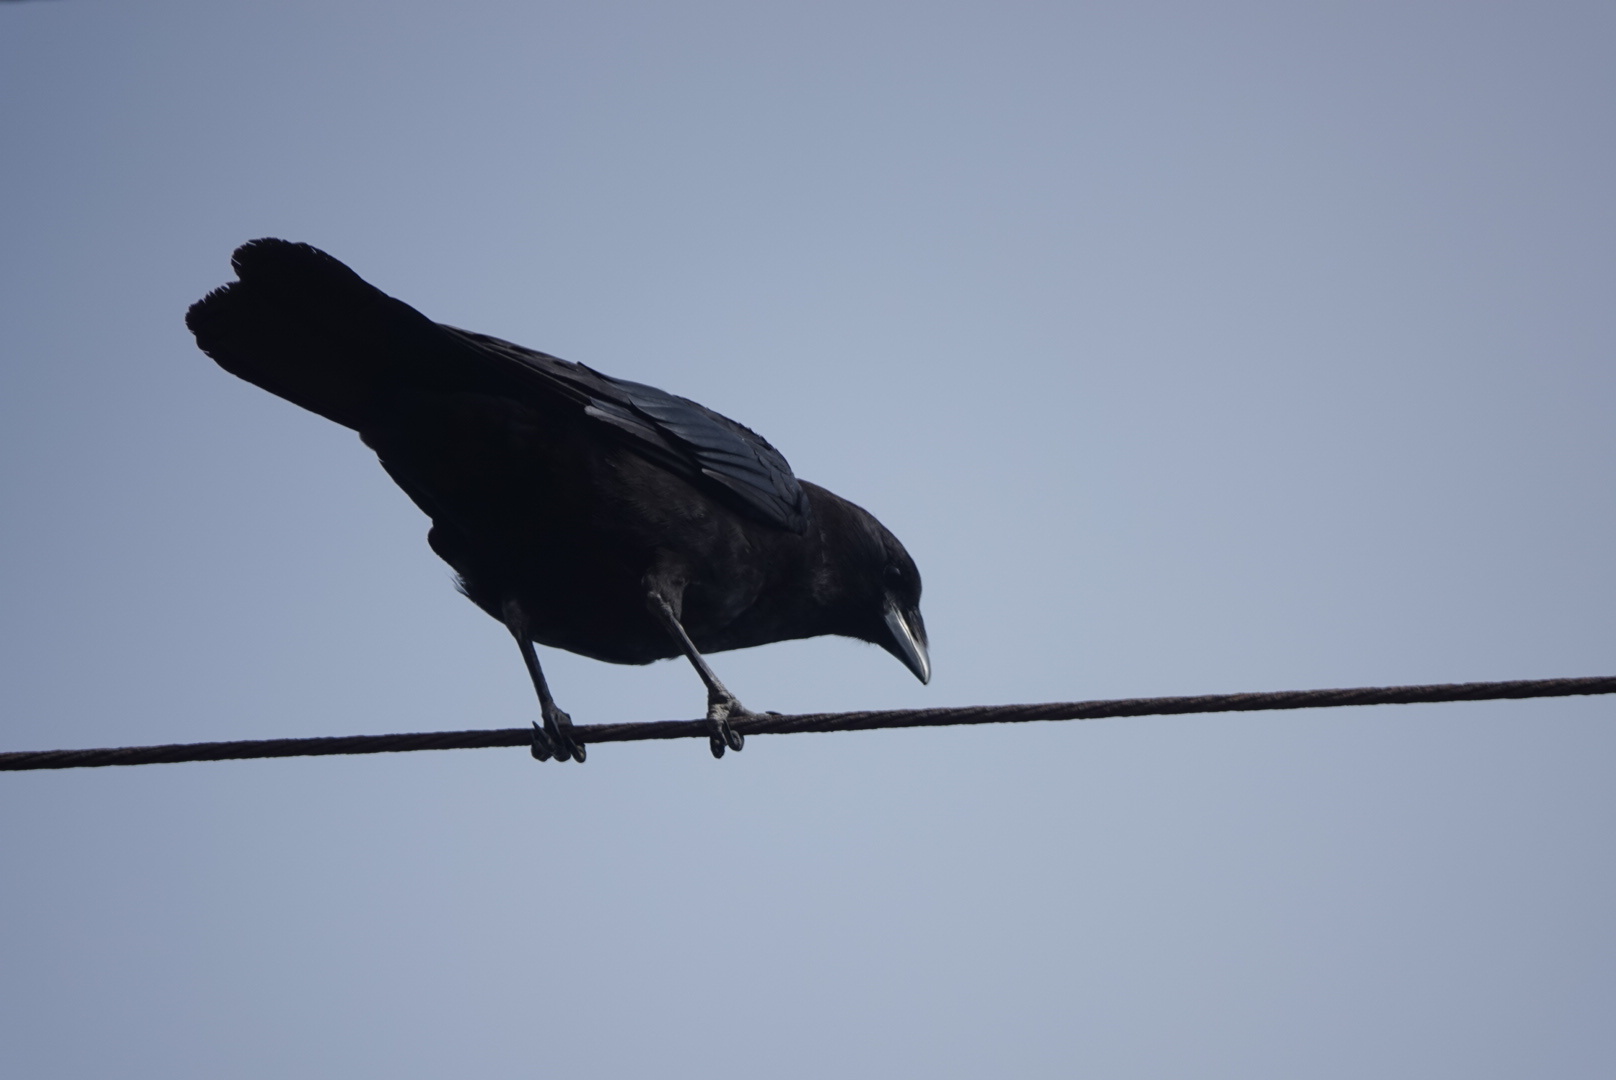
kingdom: Animalia
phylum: Chordata
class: Aves
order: Passeriformes
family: Corvidae
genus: Corvus
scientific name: Corvus brachyrhynchos
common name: American crow
